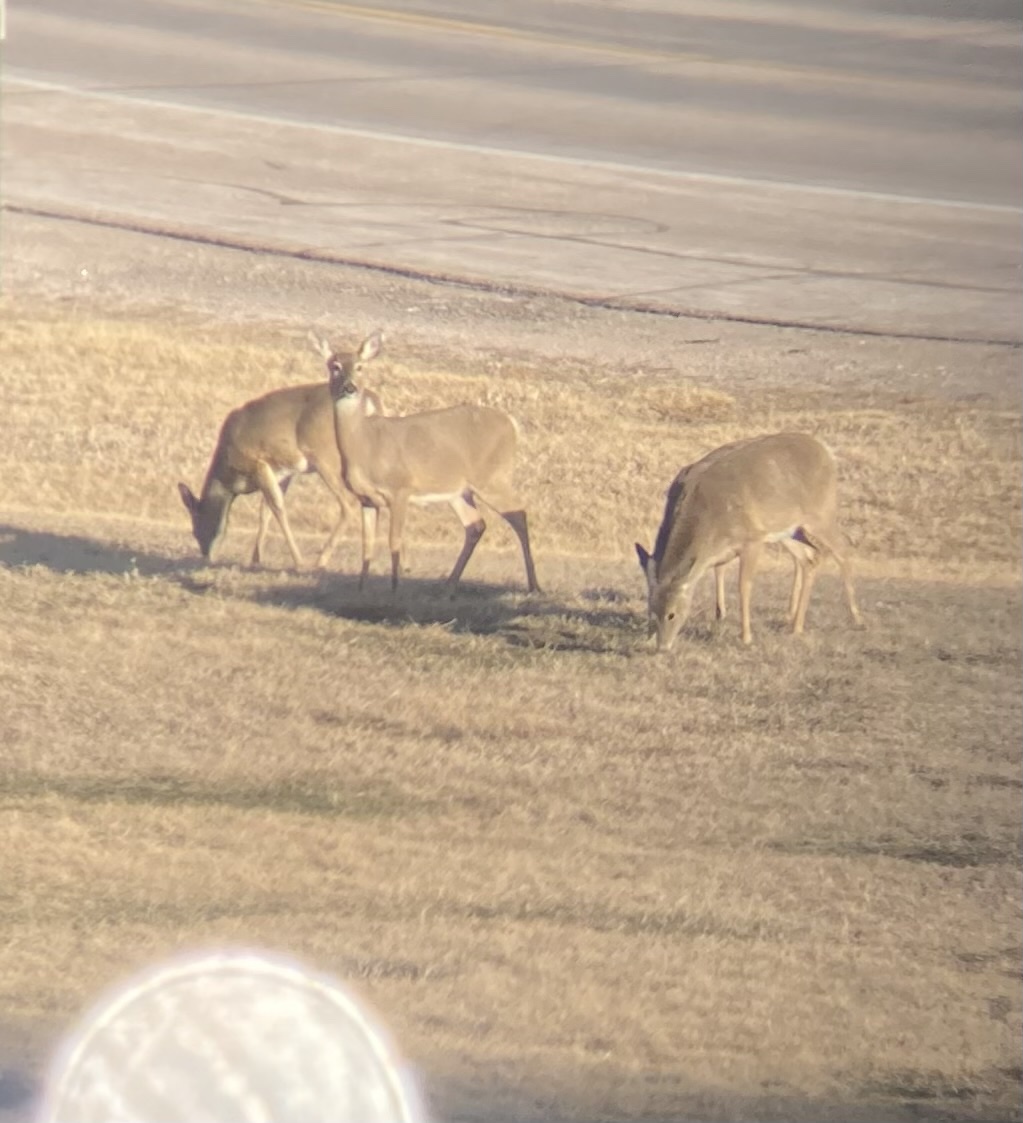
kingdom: Animalia
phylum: Chordata
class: Mammalia
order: Artiodactyla
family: Cervidae
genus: Odocoileus
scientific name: Odocoileus virginianus
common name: White-tailed deer
